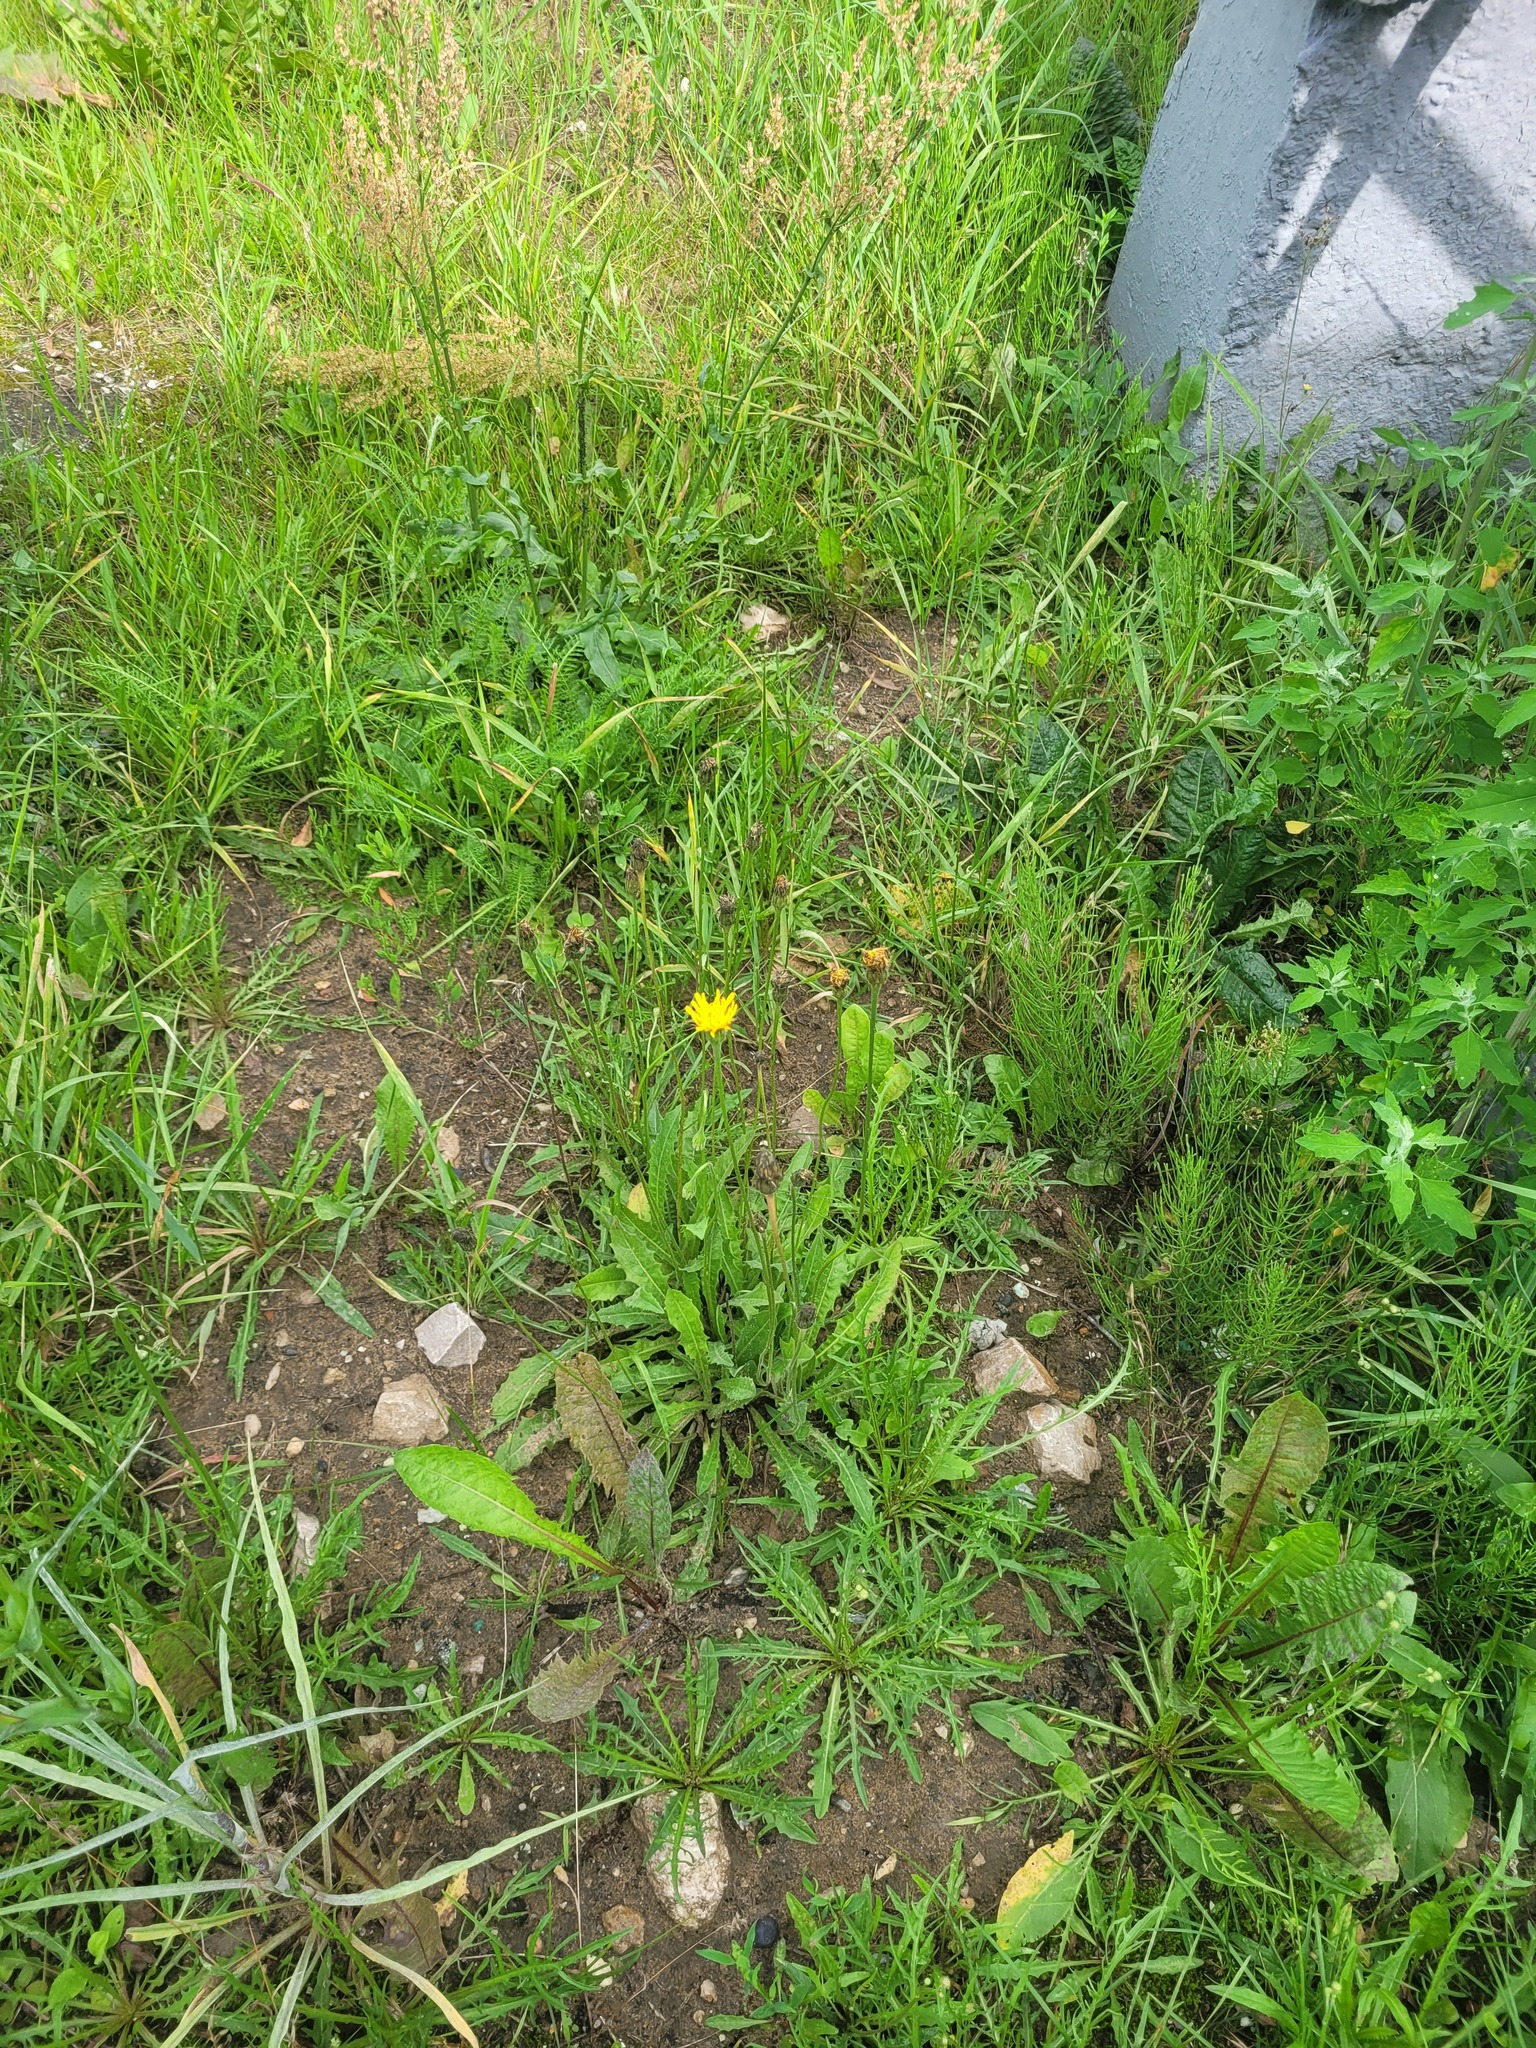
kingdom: Plantae
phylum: Tracheophyta
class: Magnoliopsida
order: Asterales
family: Asteraceae
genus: Leontodon
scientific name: Leontodon hispidus
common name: Rough hawkbit
